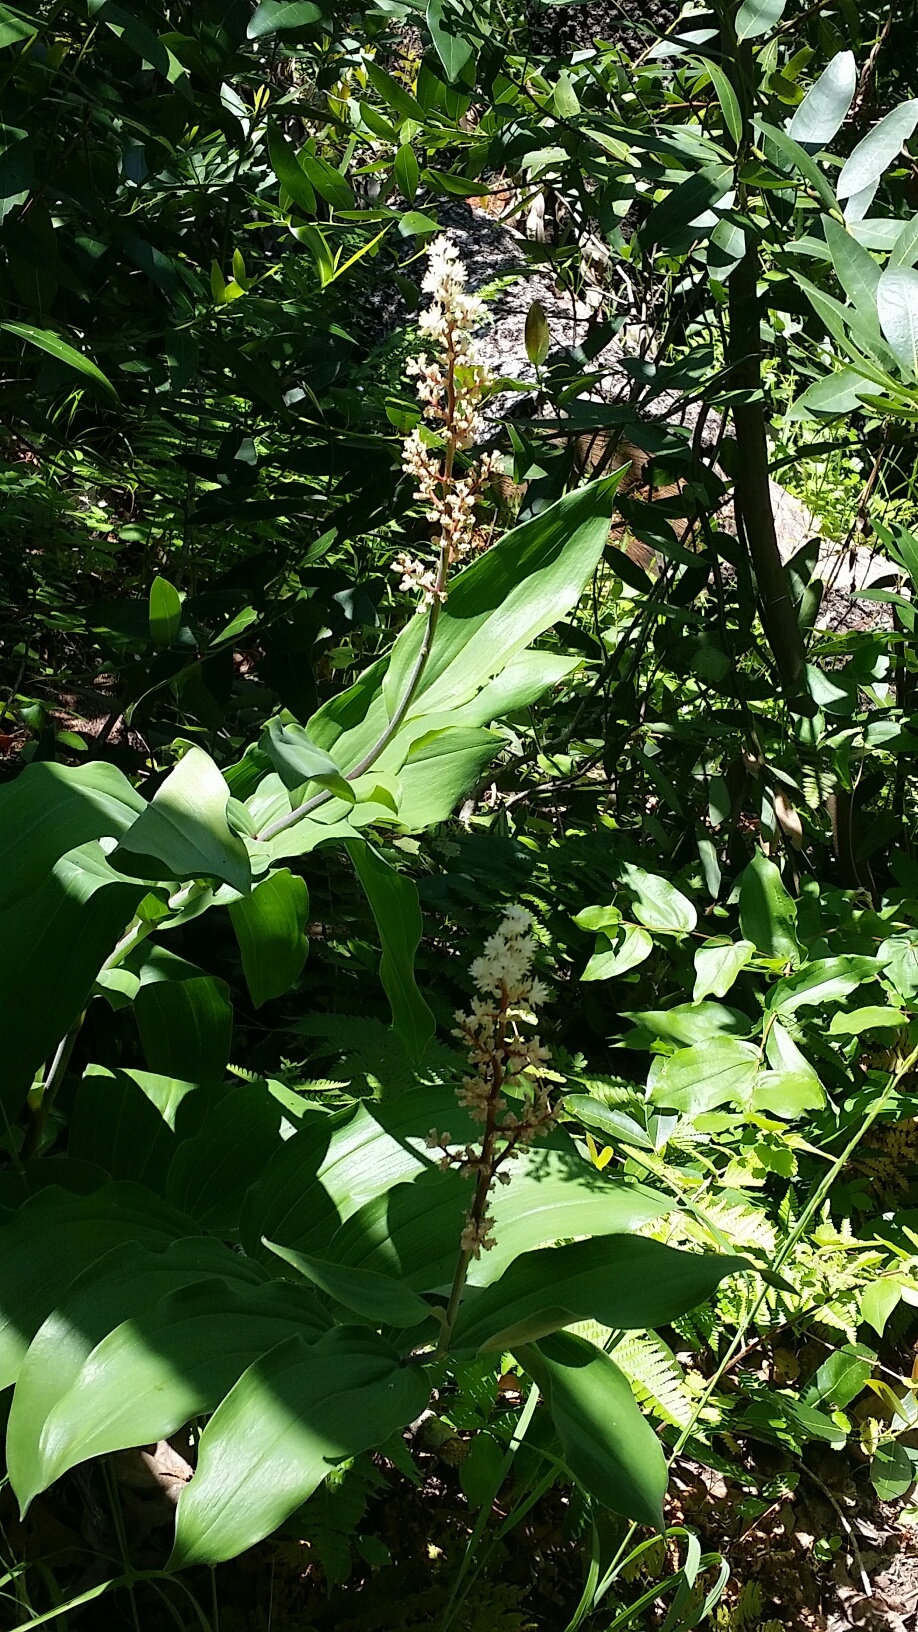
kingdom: Plantae
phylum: Tracheophyta
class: Liliopsida
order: Asparagales
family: Asparagaceae
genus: Maianthemum
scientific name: Maianthemum racemosum
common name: False spikenard
